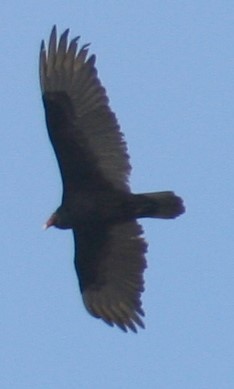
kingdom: Animalia
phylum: Chordata
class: Aves
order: Accipitriformes
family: Cathartidae
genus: Cathartes
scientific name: Cathartes aura
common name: Turkey vulture
